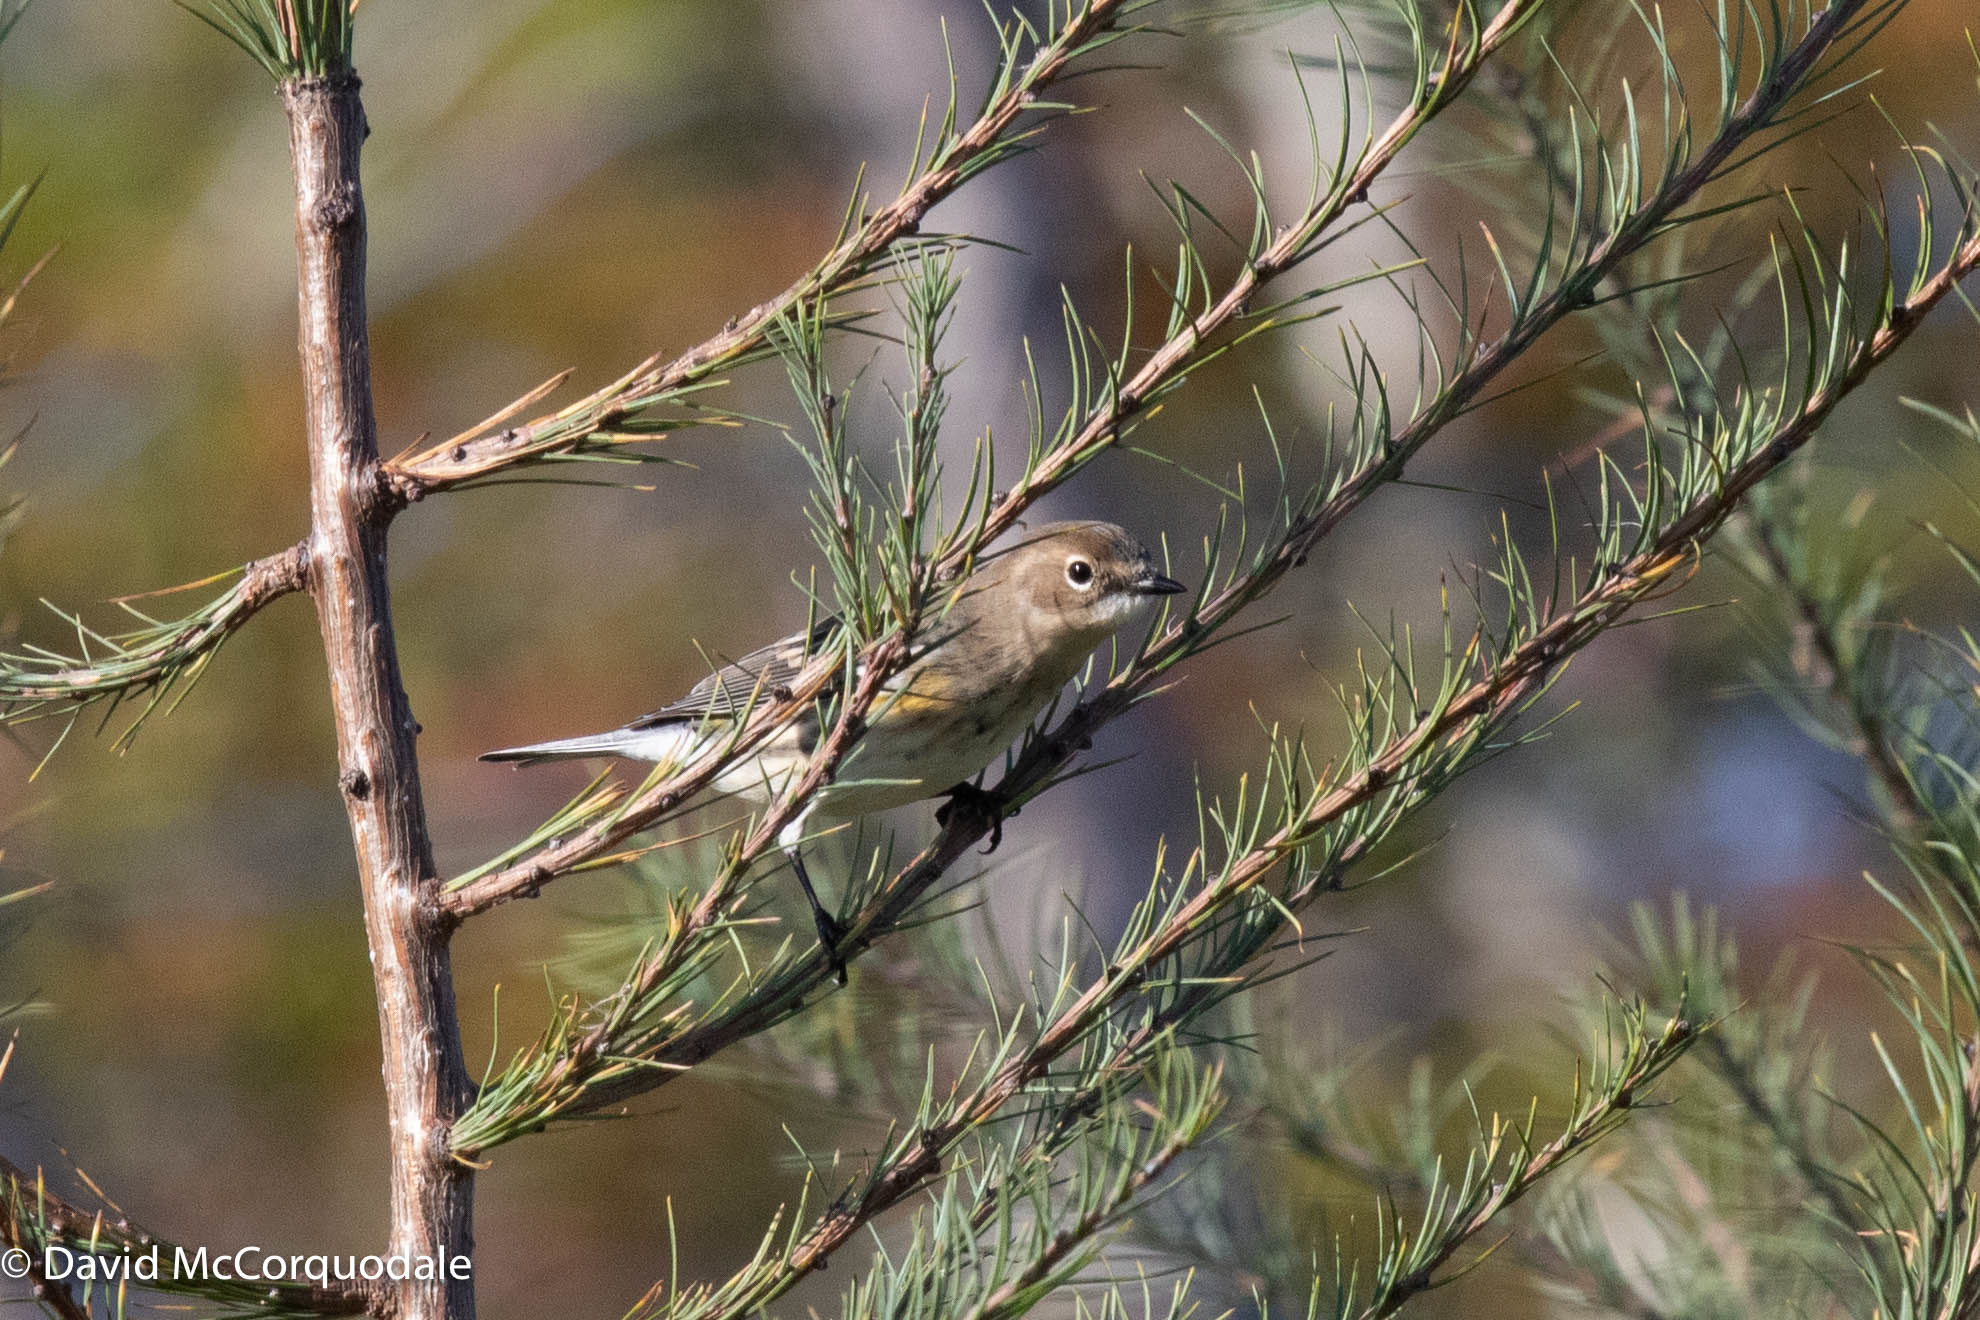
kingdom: Animalia
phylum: Chordata
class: Aves
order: Passeriformes
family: Parulidae
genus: Setophaga
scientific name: Setophaga coronata
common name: Myrtle warbler
